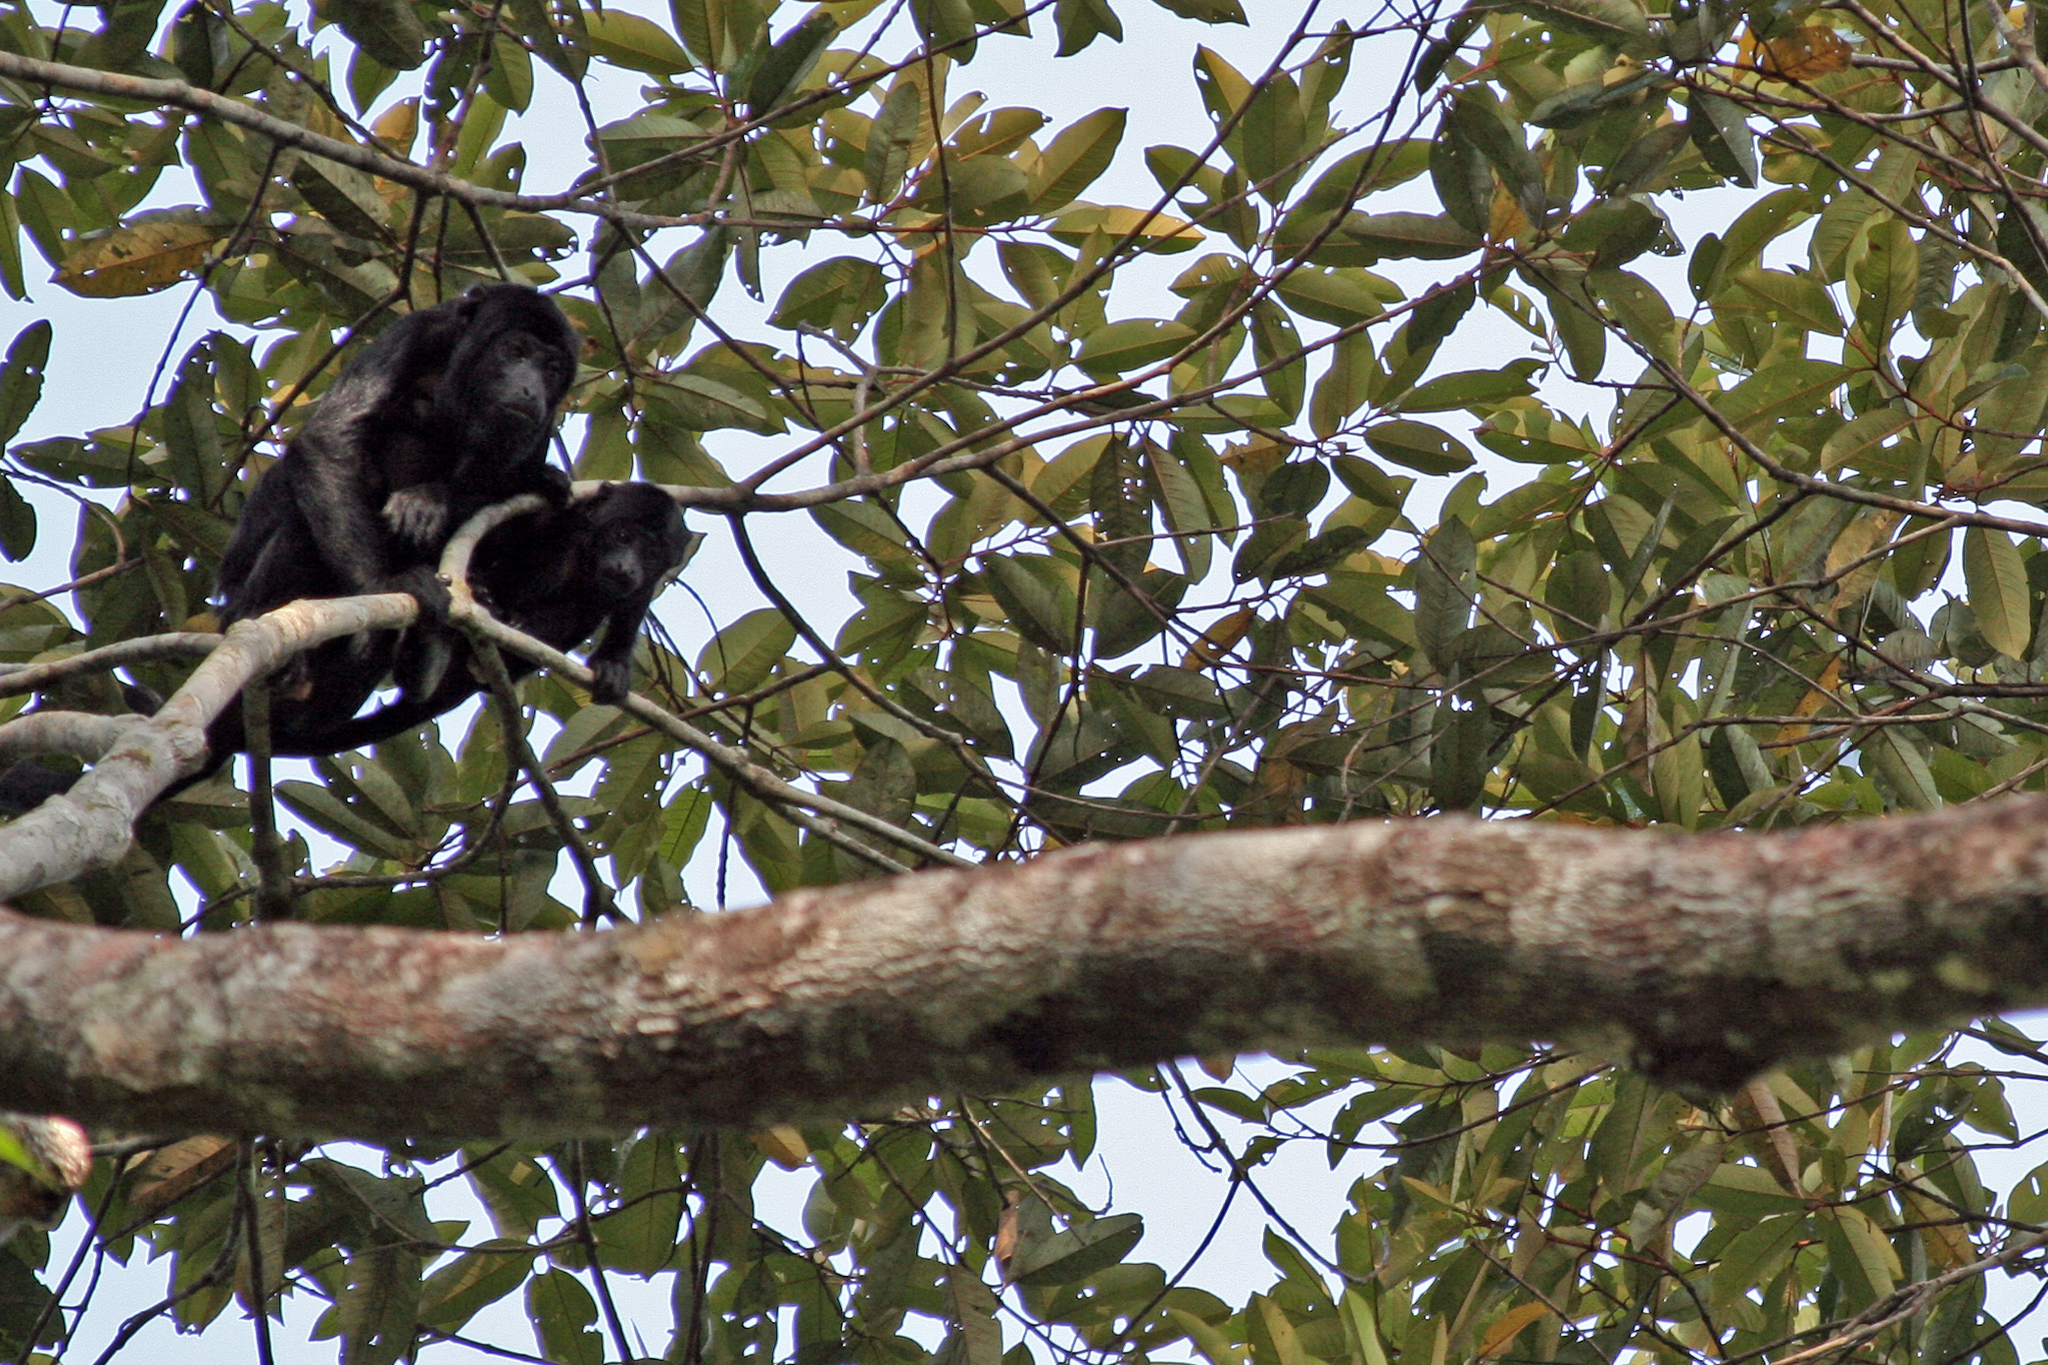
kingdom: Animalia
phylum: Chordata
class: Mammalia
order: Primates
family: Atelidae
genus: Alouatta
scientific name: Alouatta discolor
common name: Spix's red-handed howler monkey
